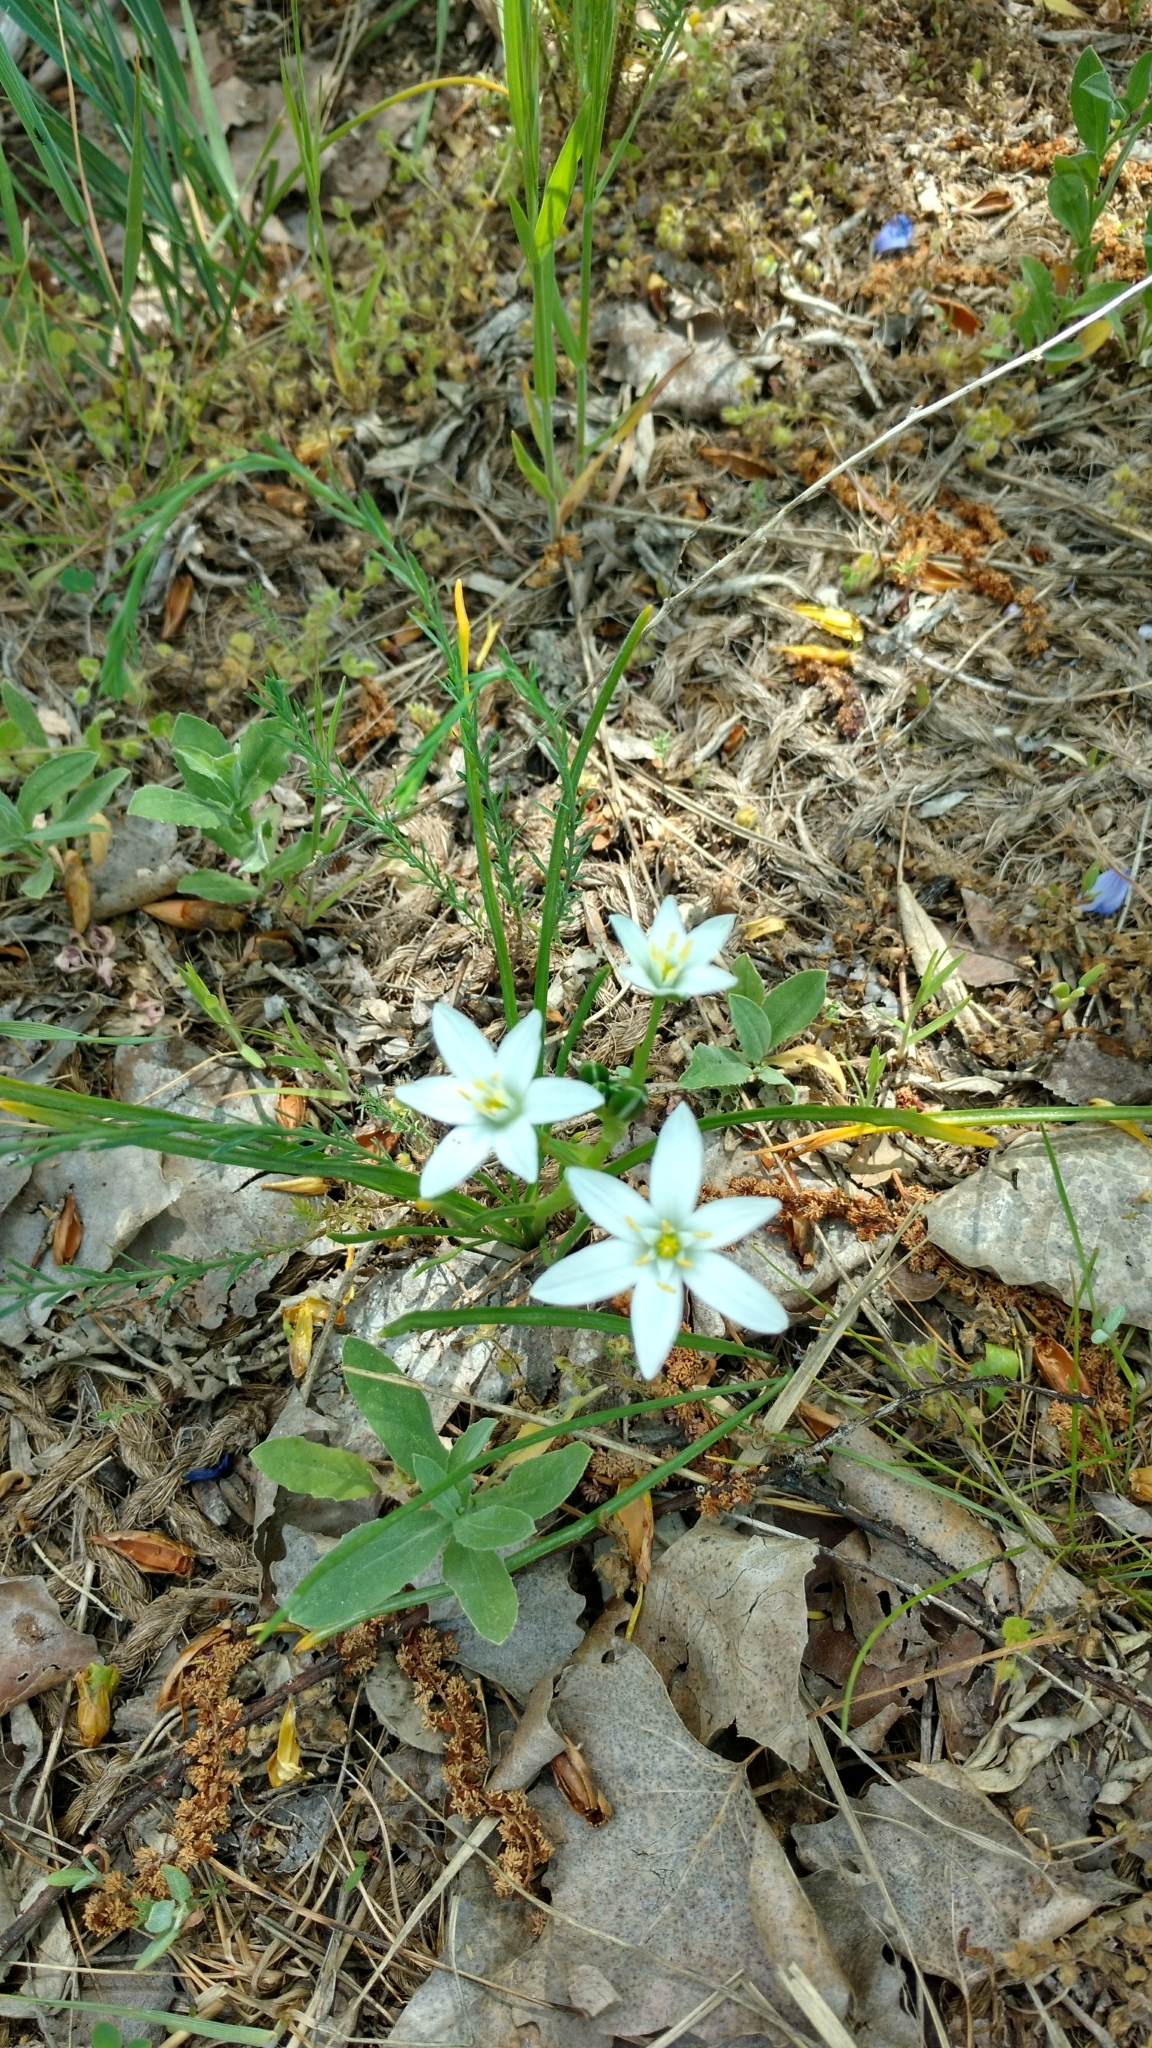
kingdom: Plantae
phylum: Tracheophyta
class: Liliopsida
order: Asparagales
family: Asparagaceae
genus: Ornithogalum
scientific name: Ornithogalum umbellatum
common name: Garden star-of-bethlehem
